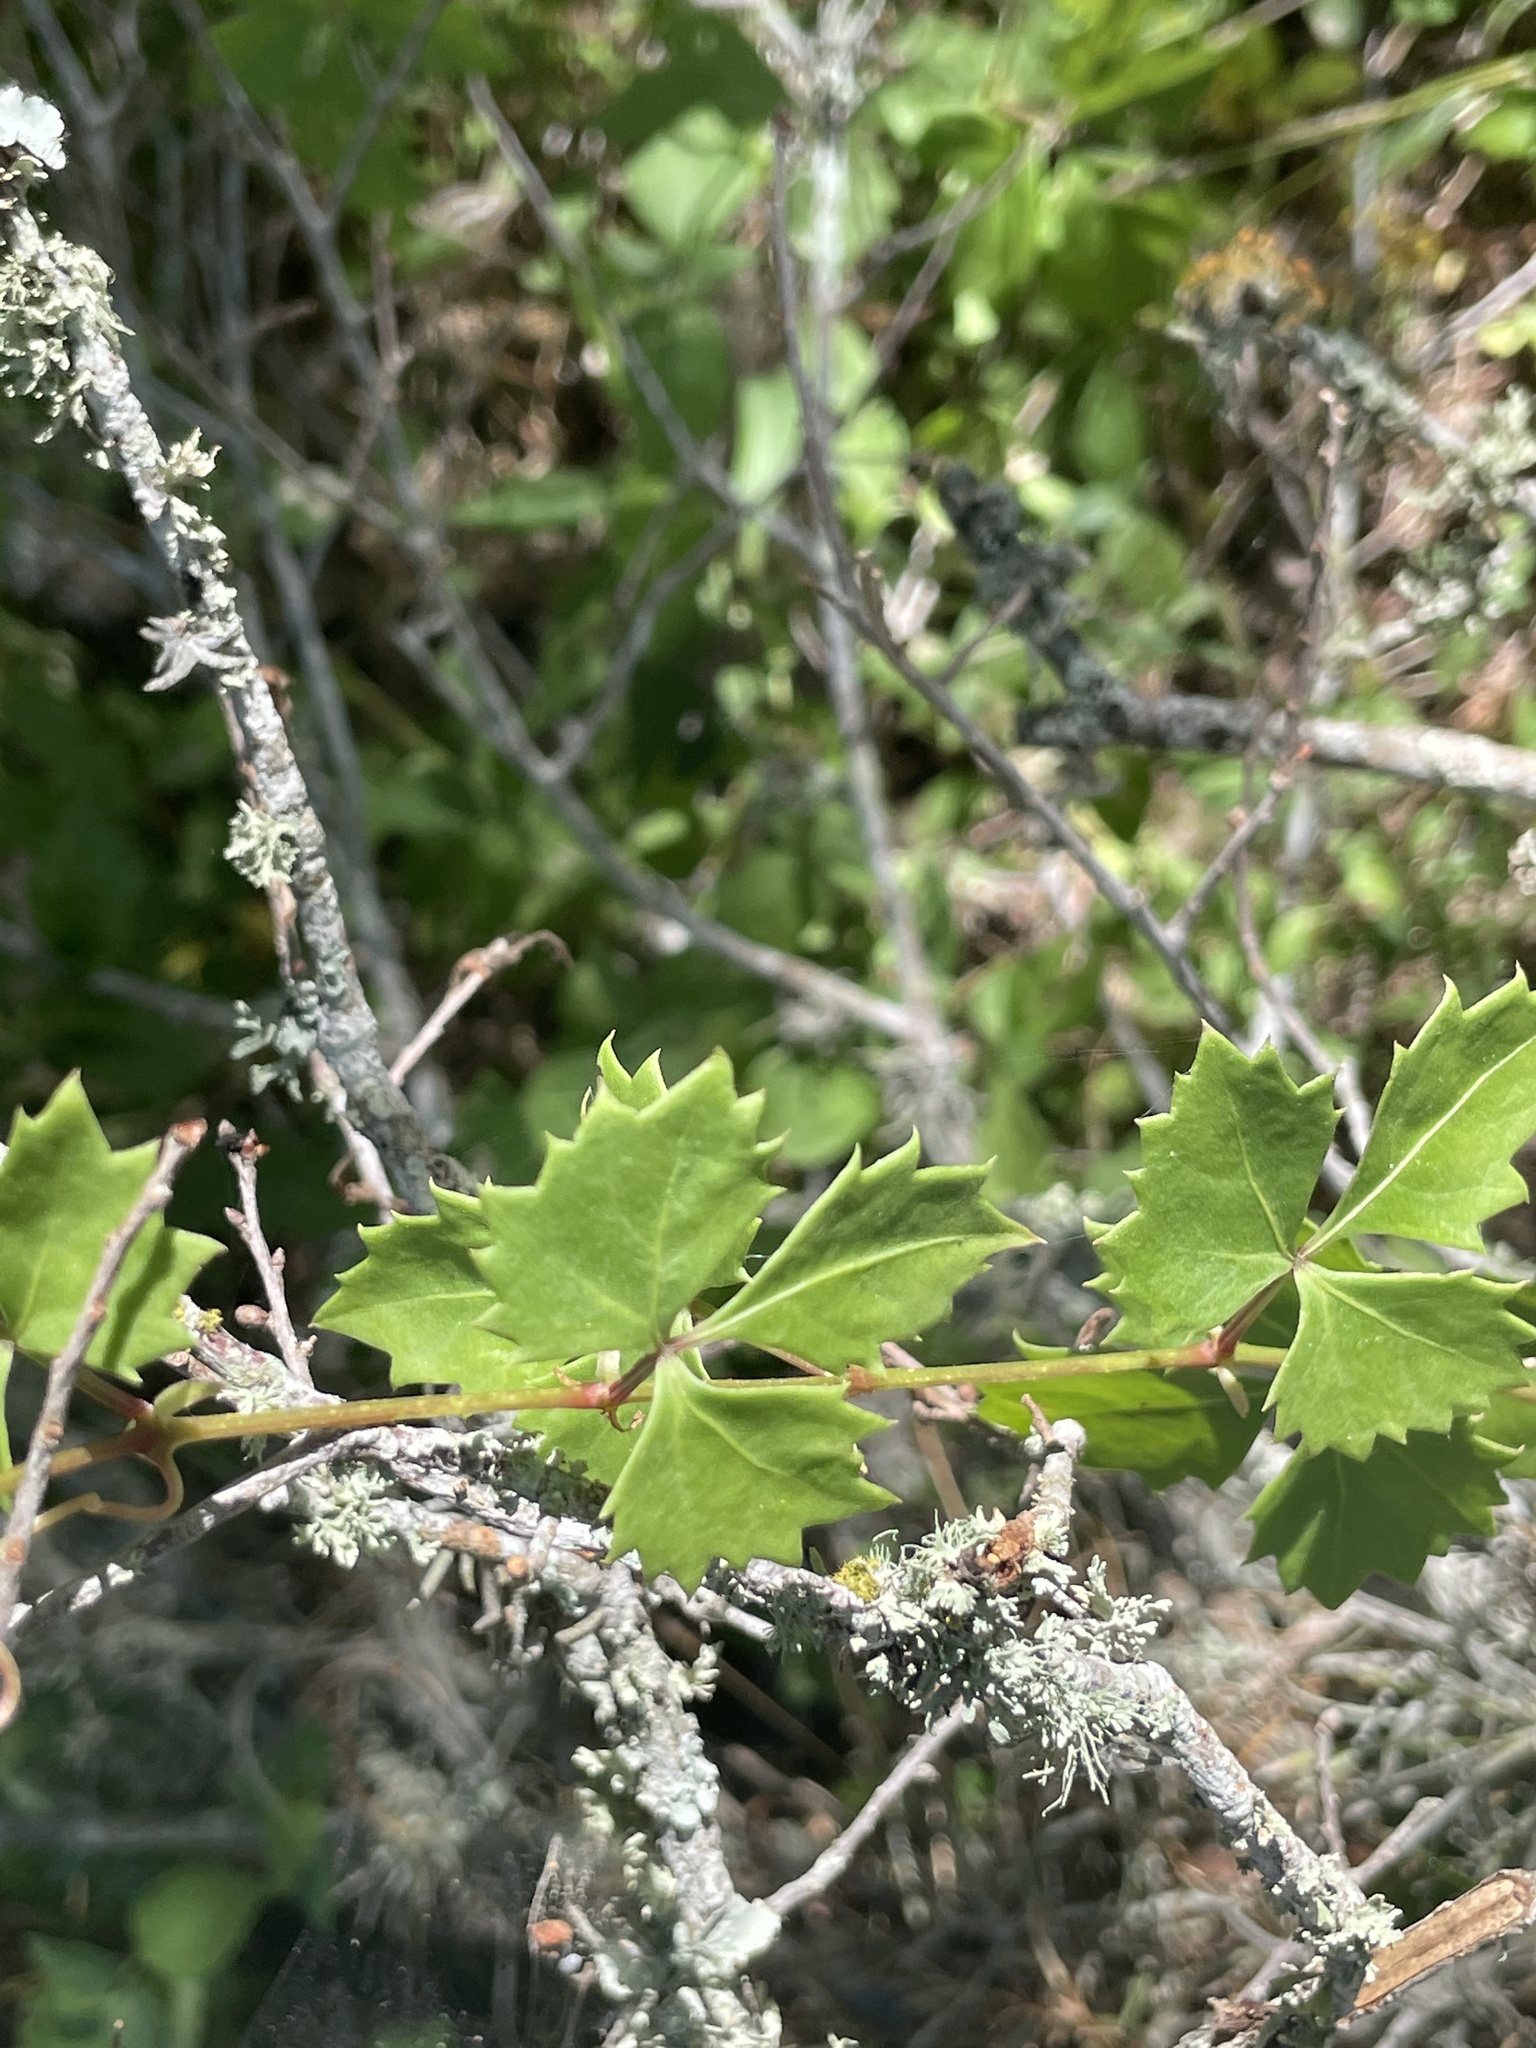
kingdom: Plantae
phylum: Tracheophyta
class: Magnoliopsida
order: Vitales
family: Vitaceae
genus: Cissus
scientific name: Cissus trifoliata
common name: Vine-sorrel
